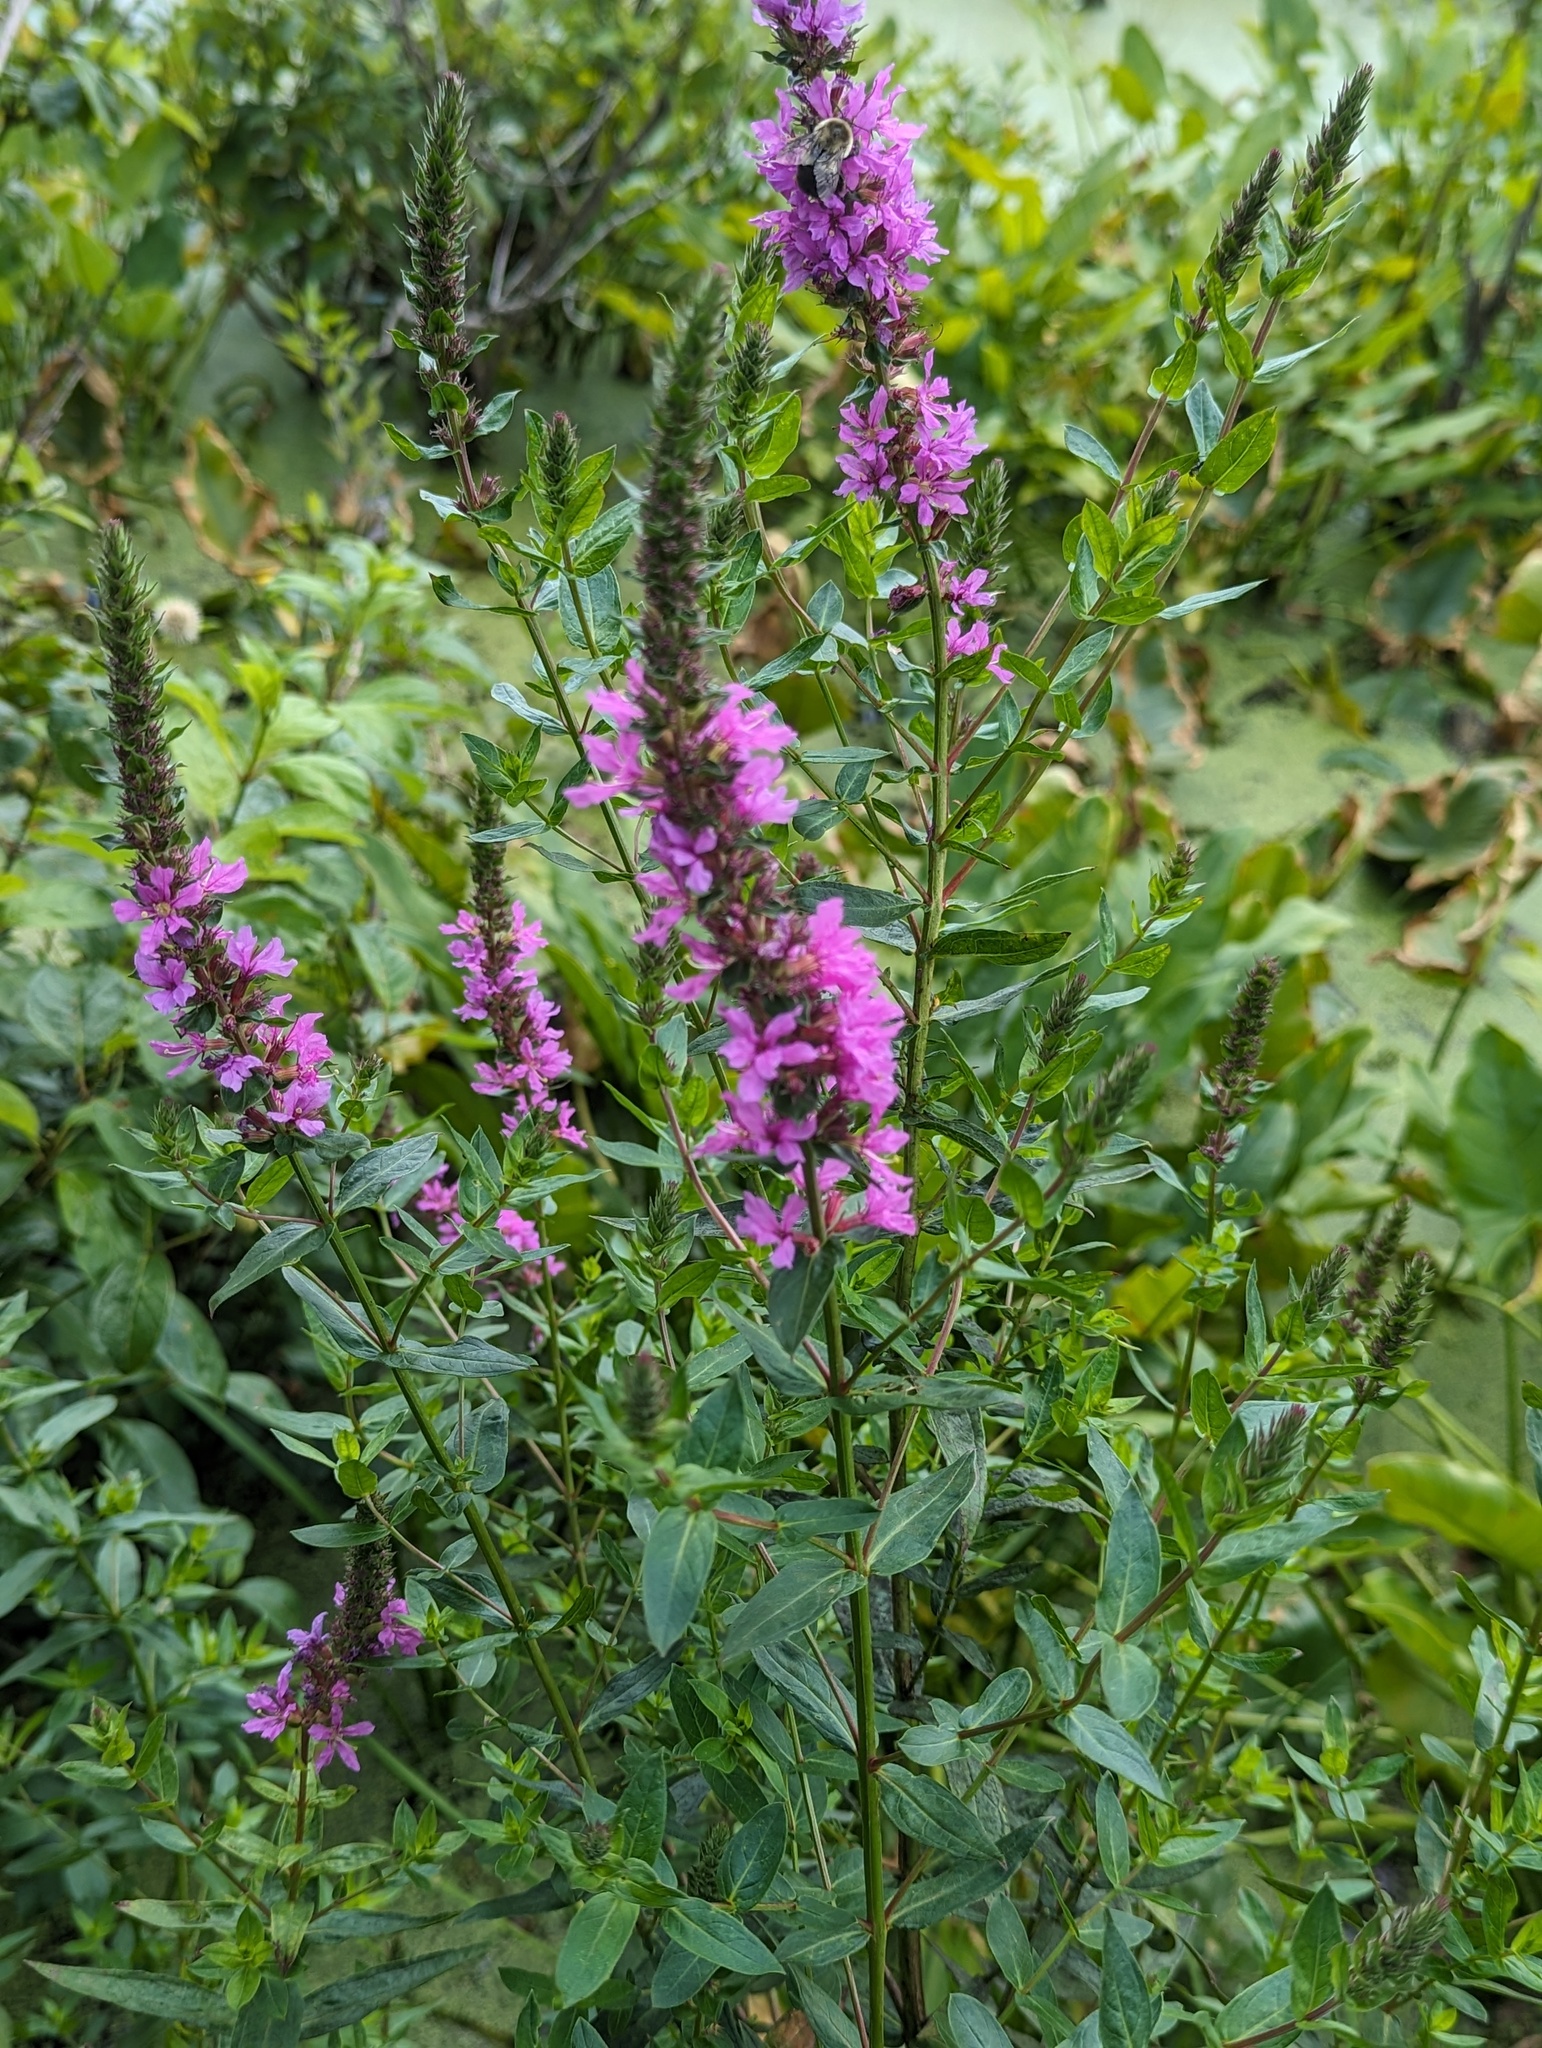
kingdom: Plantae
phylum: Tracheophyta
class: Magnoliopsida
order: Myrtales
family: Lythraceae
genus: Lythrum
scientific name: Lythrum salicaria
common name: Purple loosestrife
